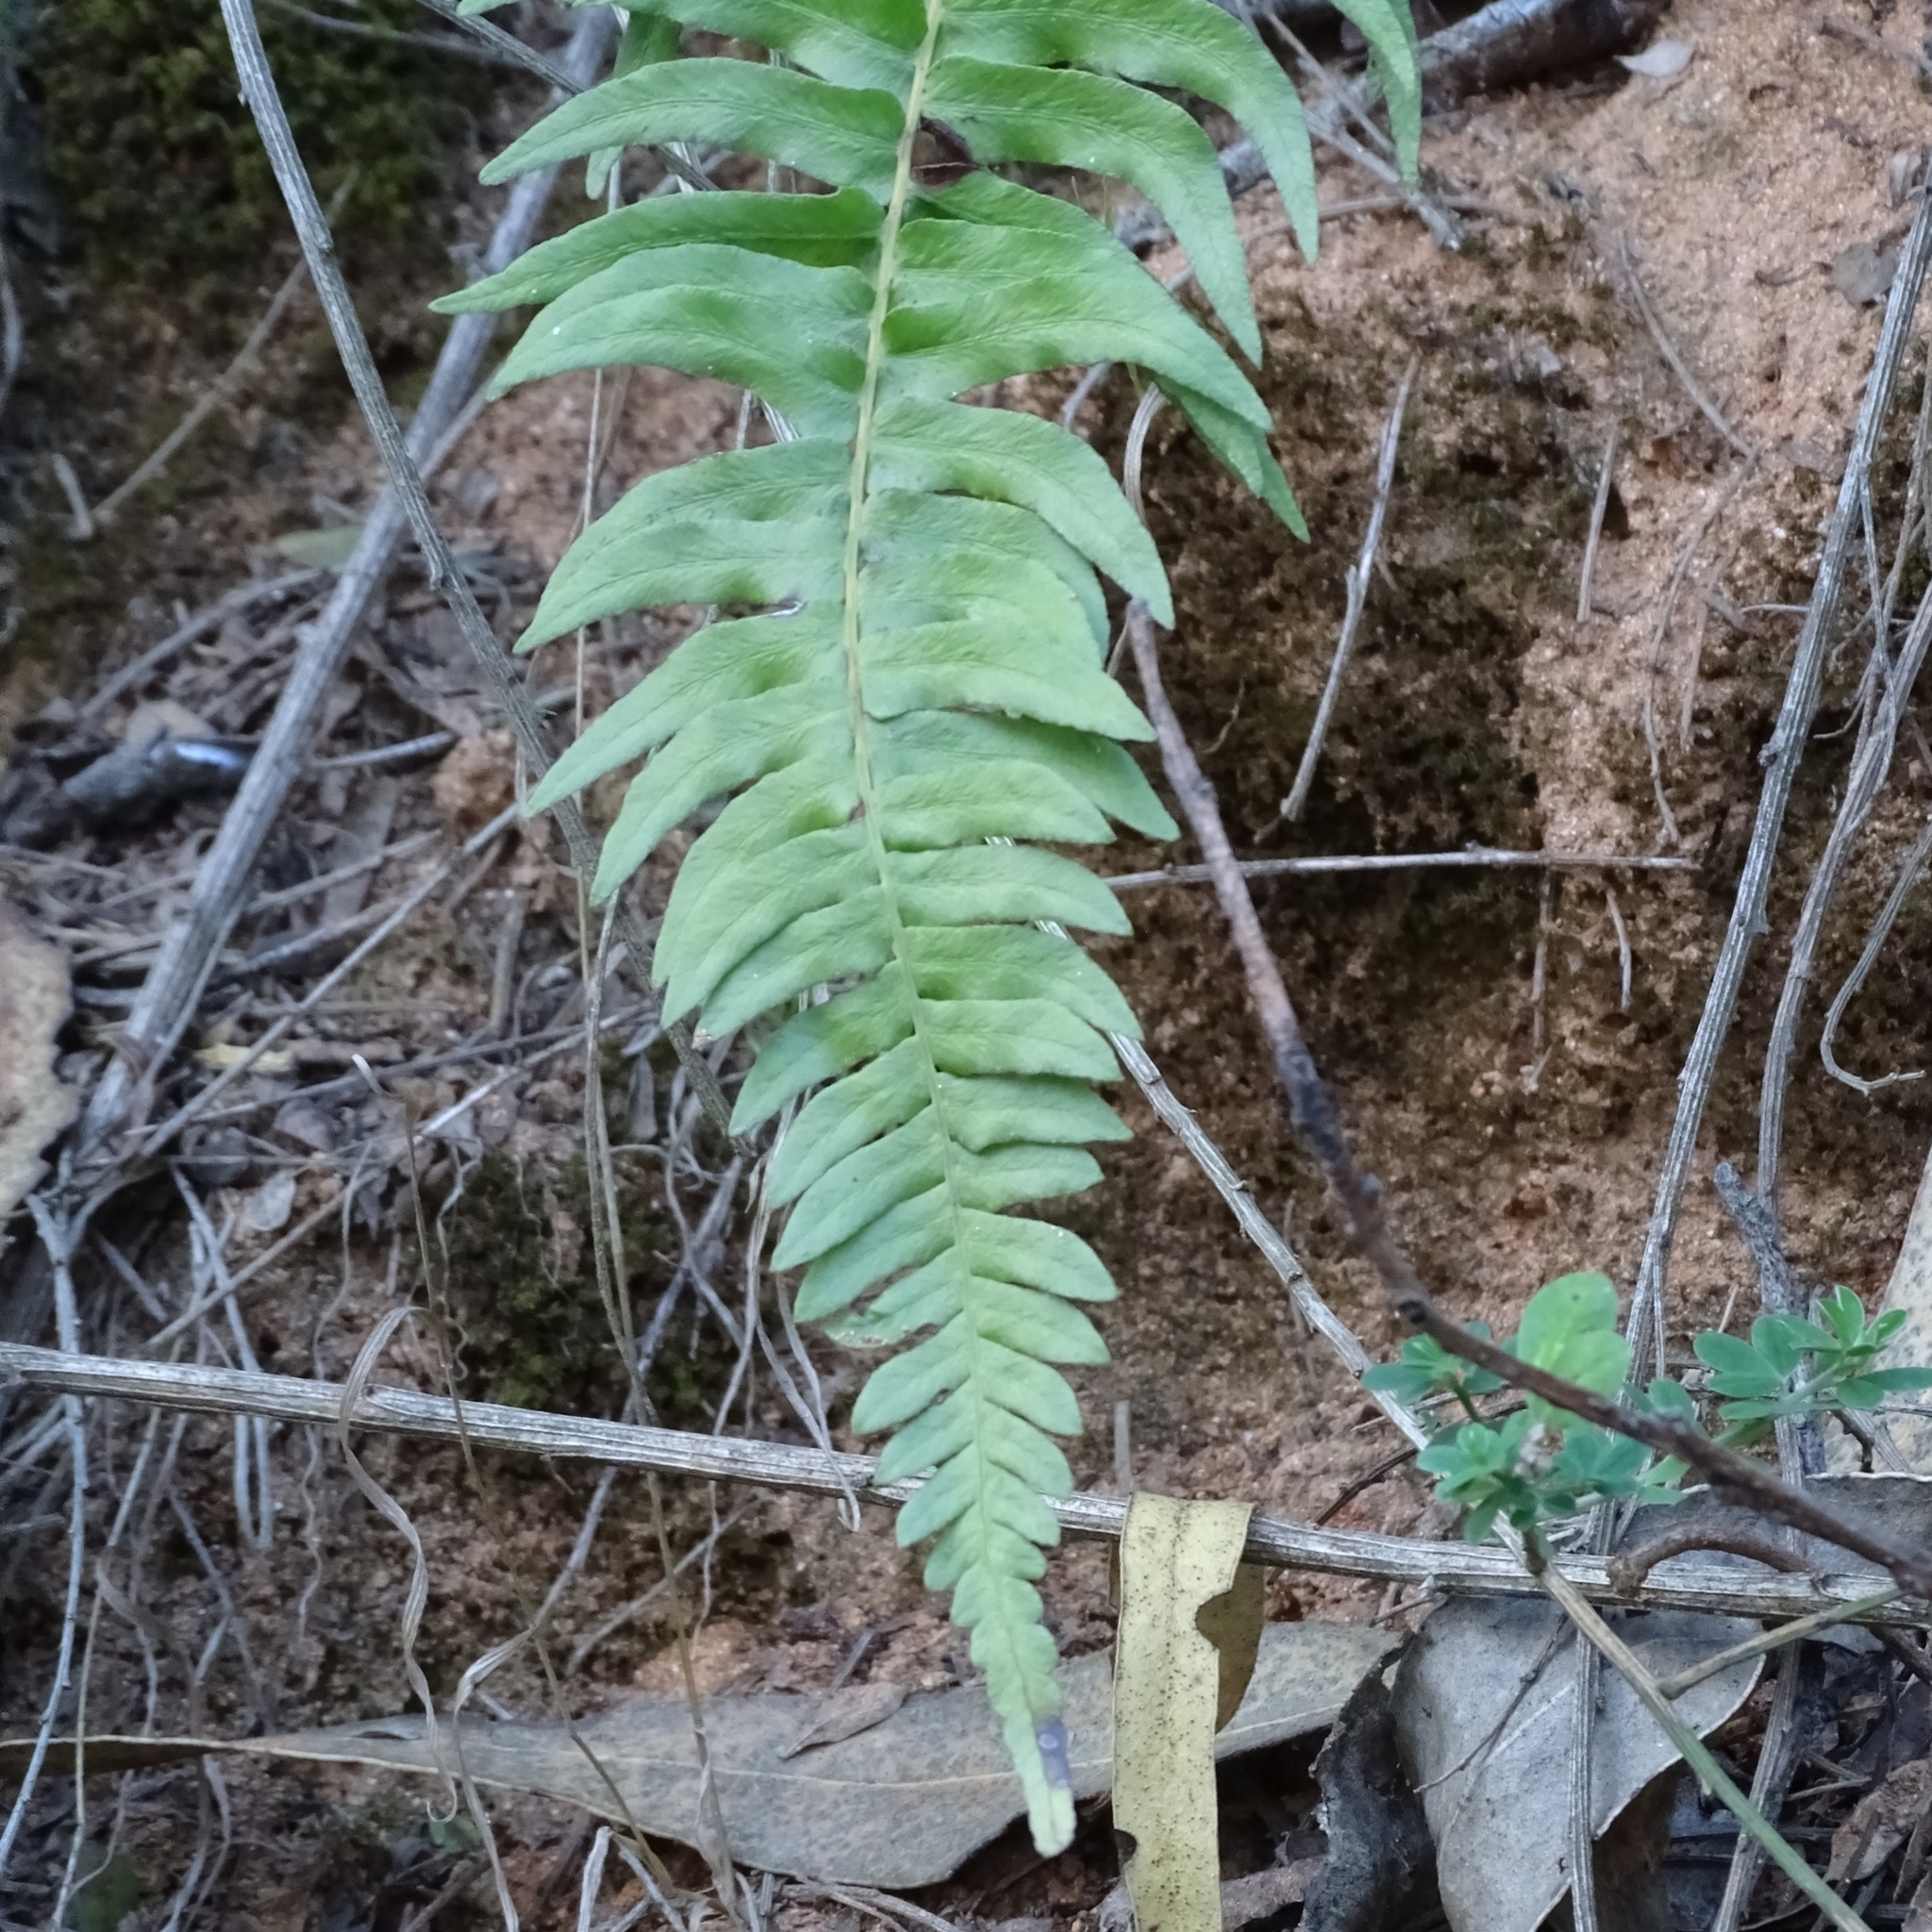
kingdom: Plantae
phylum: Tracheophyta
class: Polypodiopsida
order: Polypodiales
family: Blechnaceae
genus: Lomariocycas
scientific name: Lomariocycas magellanica
